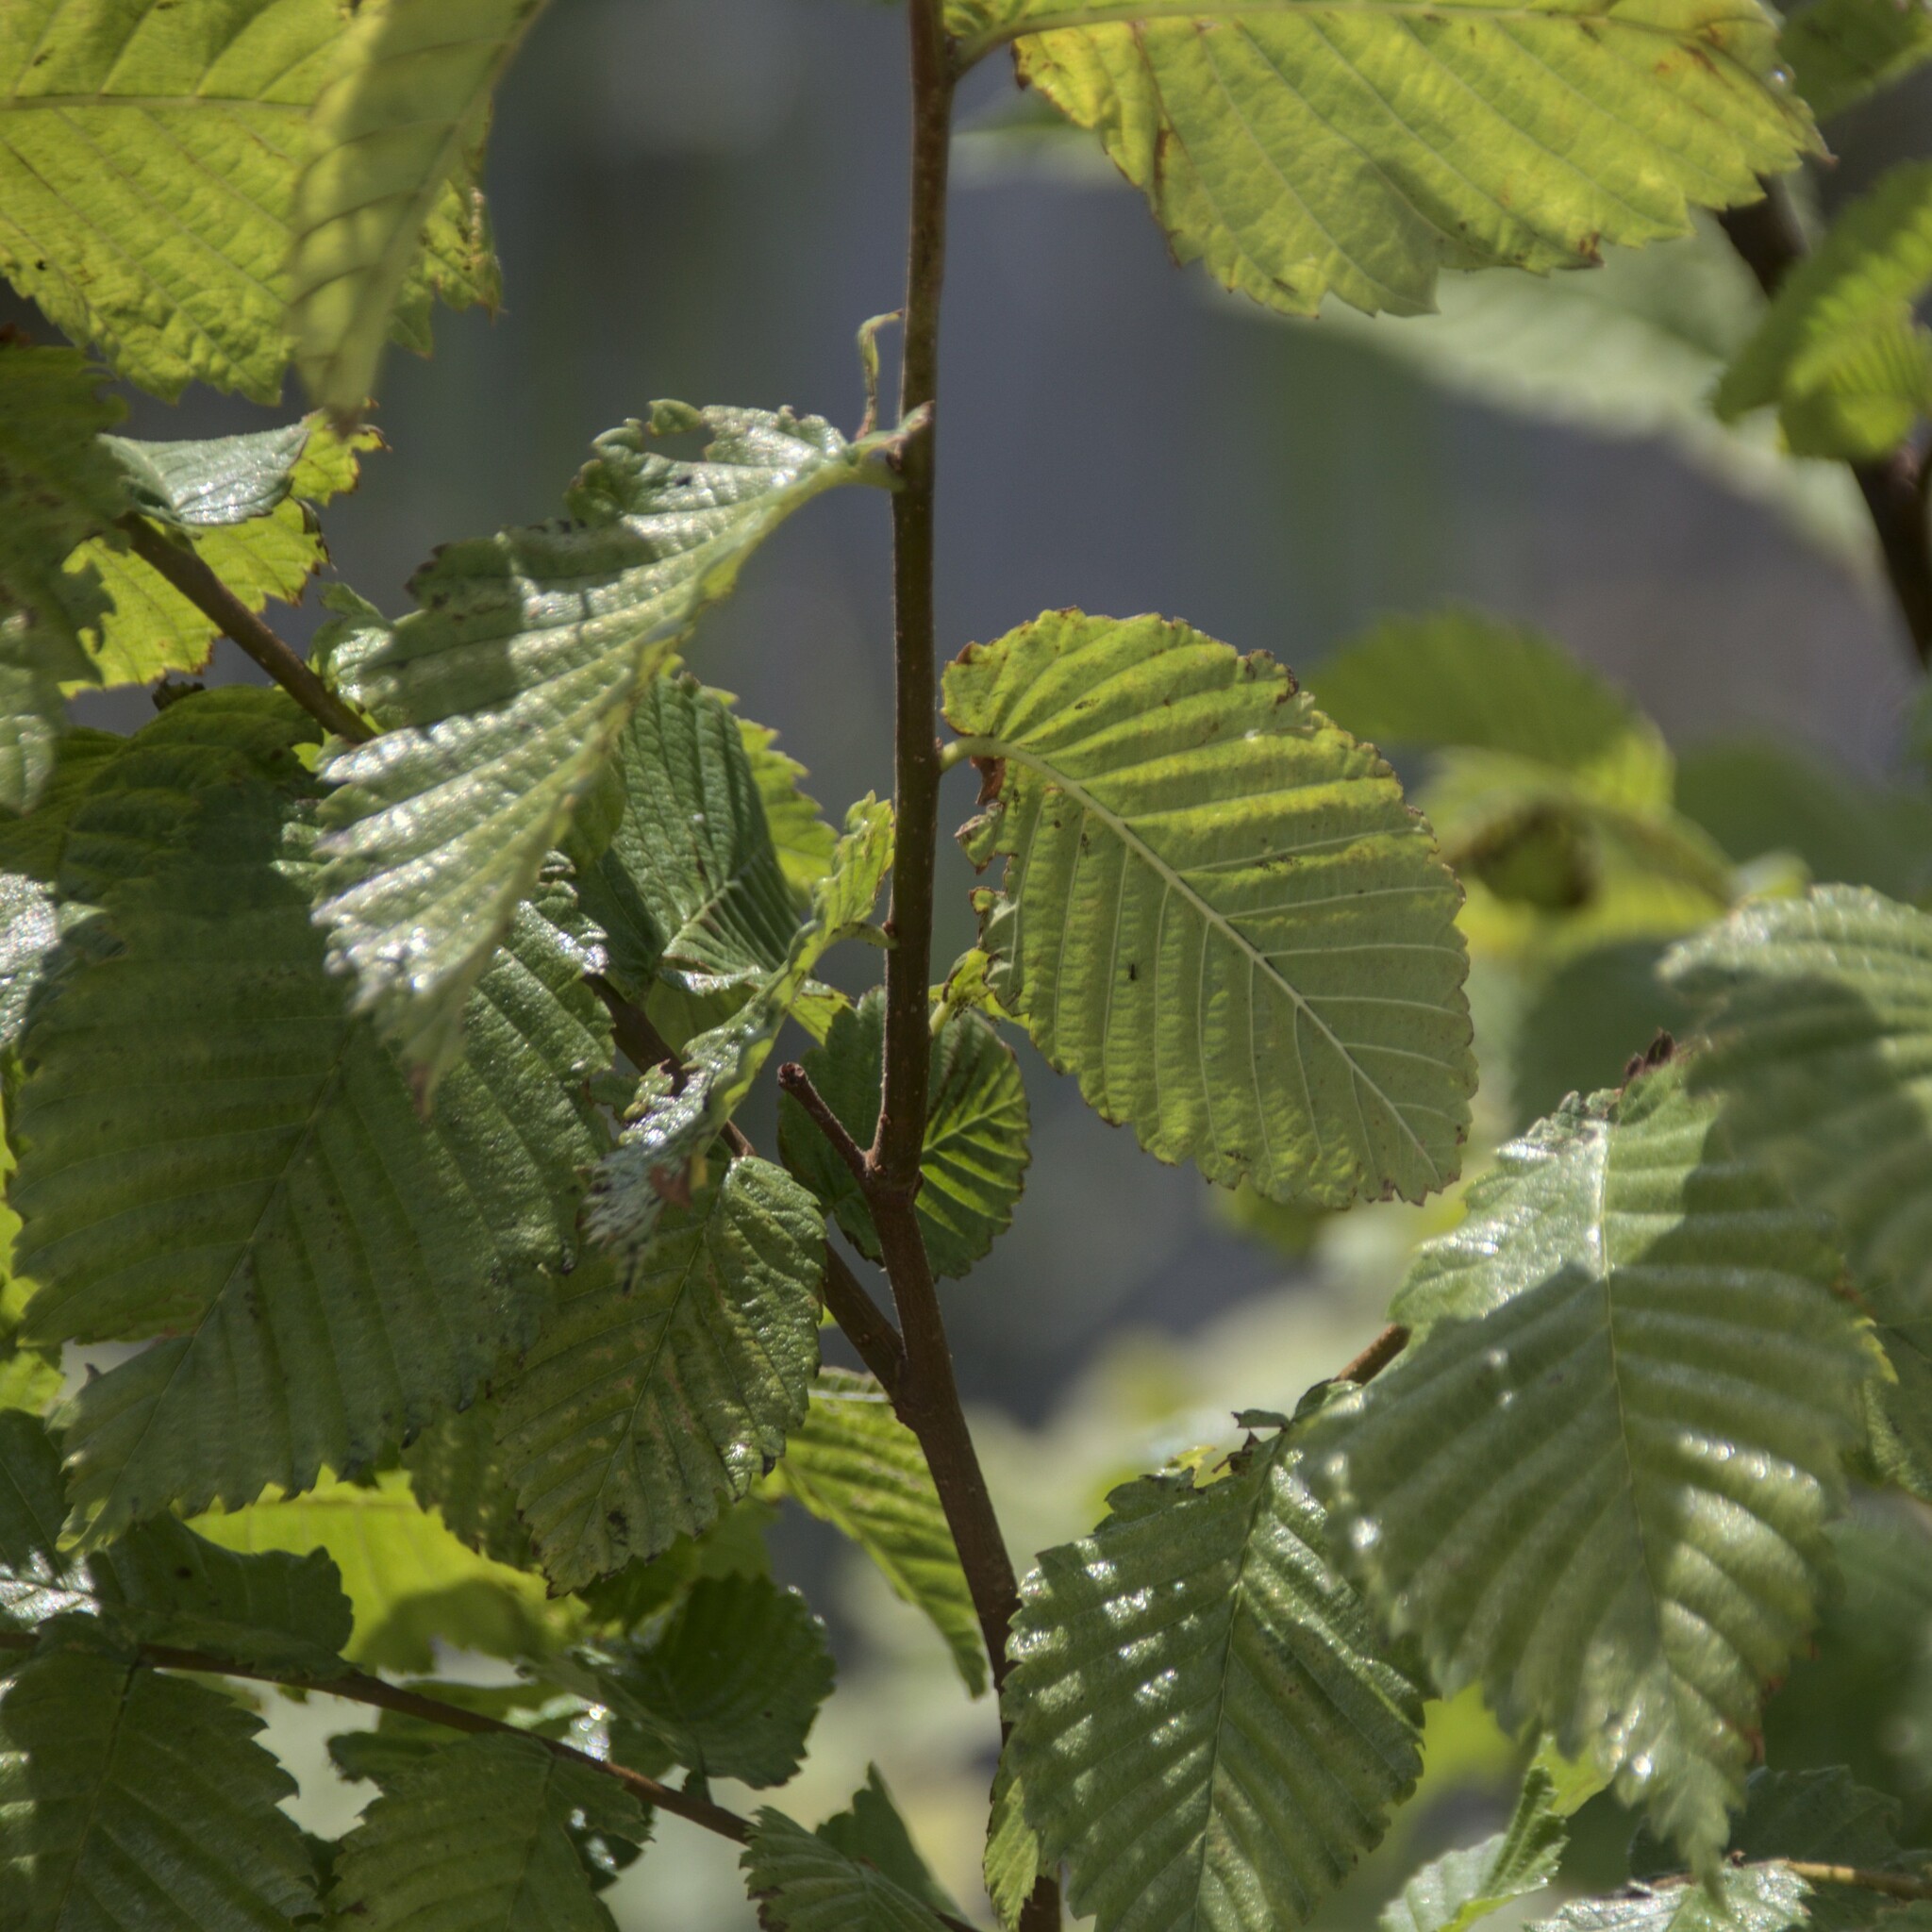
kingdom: Plantae
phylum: Tracheophyta
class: Magnoliopsida
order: Rosales
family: Ulmaceae
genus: Ulmus
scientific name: Ulmus laevis
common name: European white-elm
